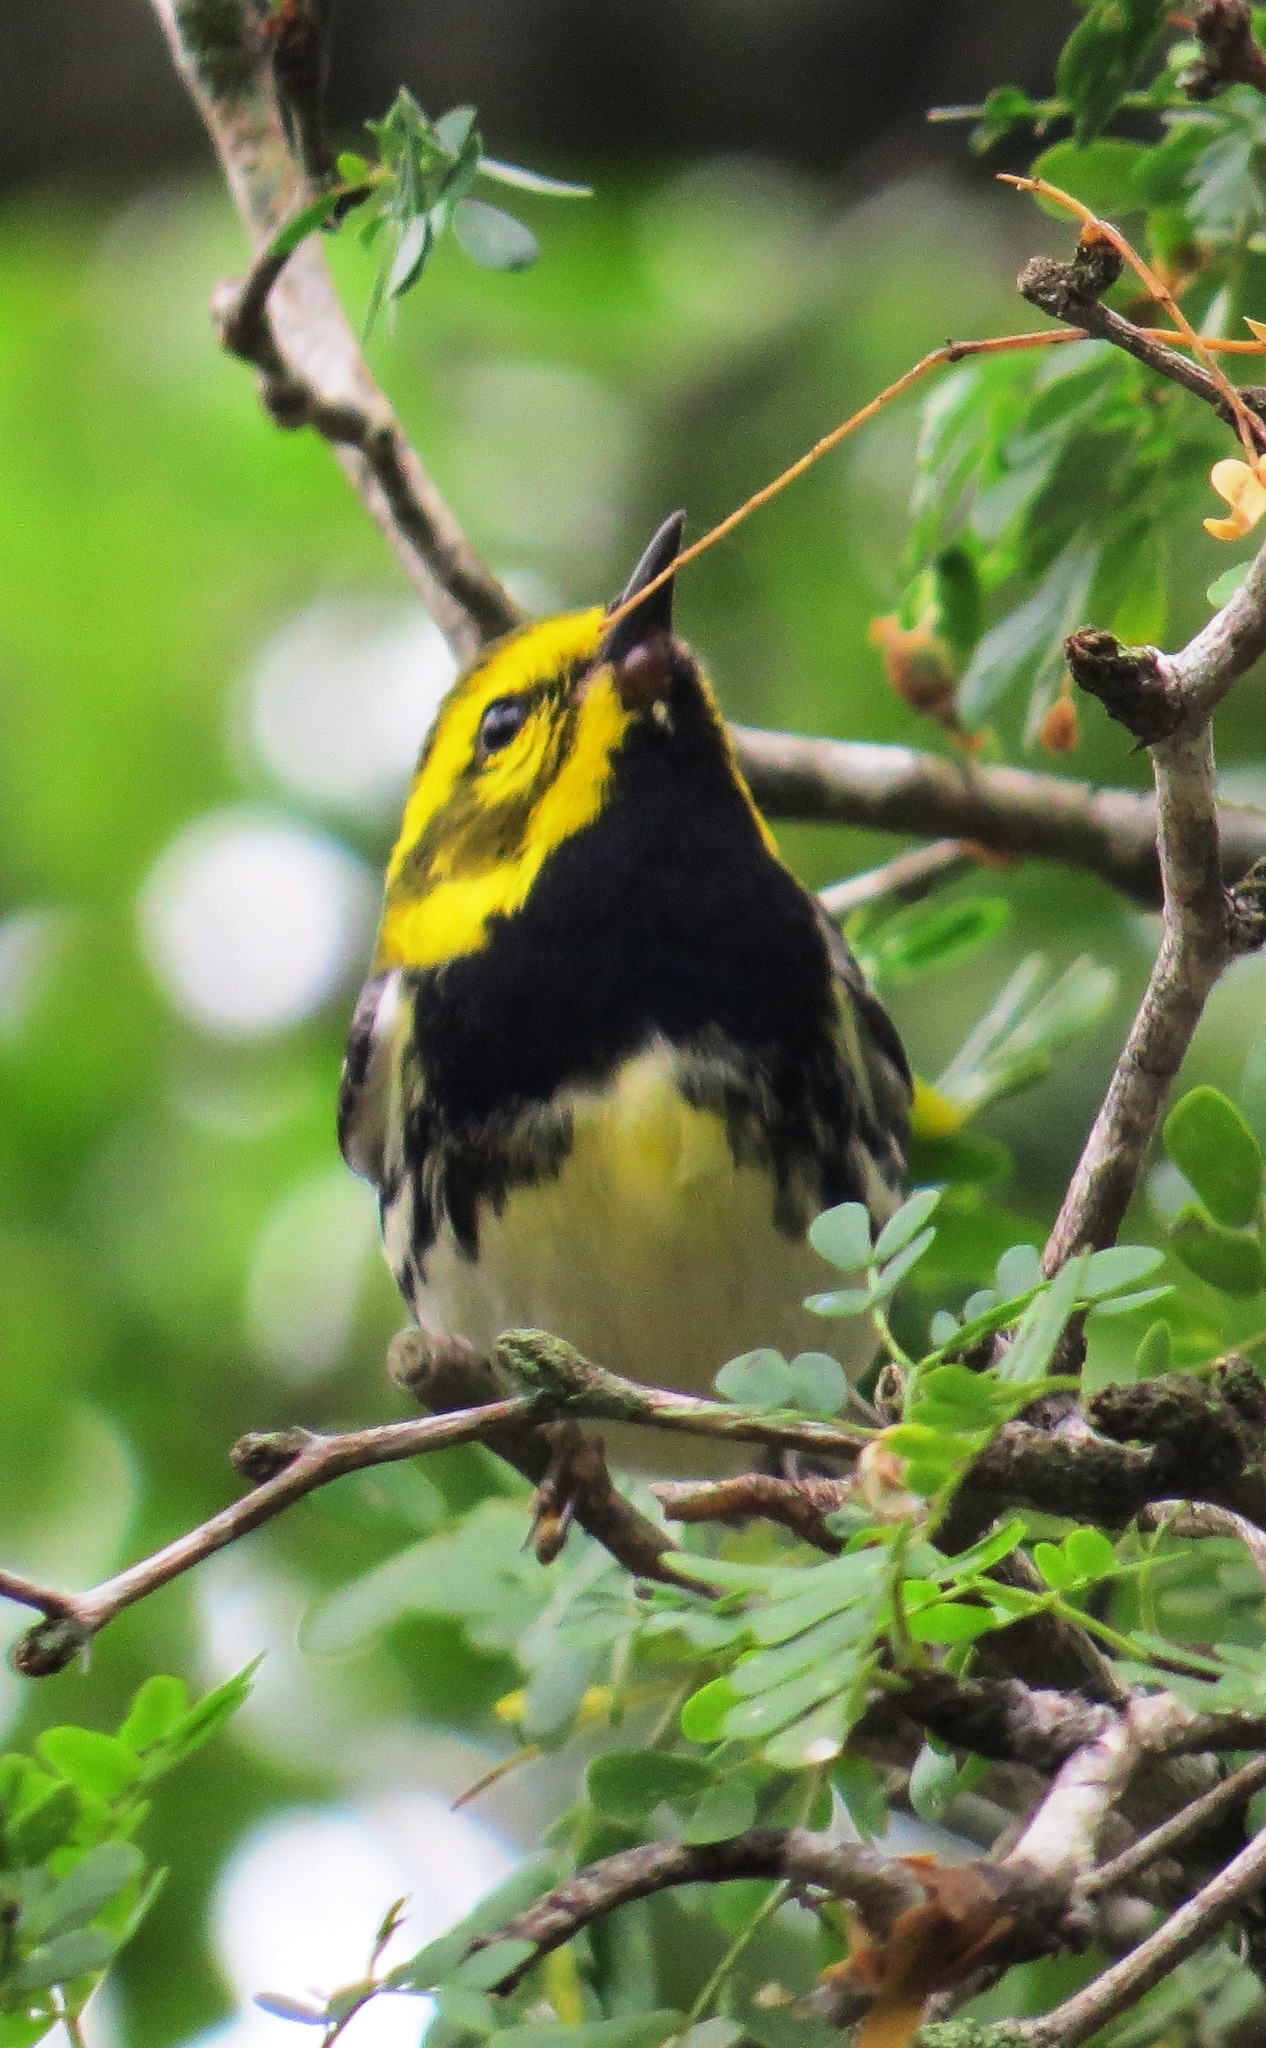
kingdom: Animalia
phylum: Chordata
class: Aves
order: Passeriformes
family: Parulidae
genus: Setophaga
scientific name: Setophaga virens
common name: Black-throated green warbler
